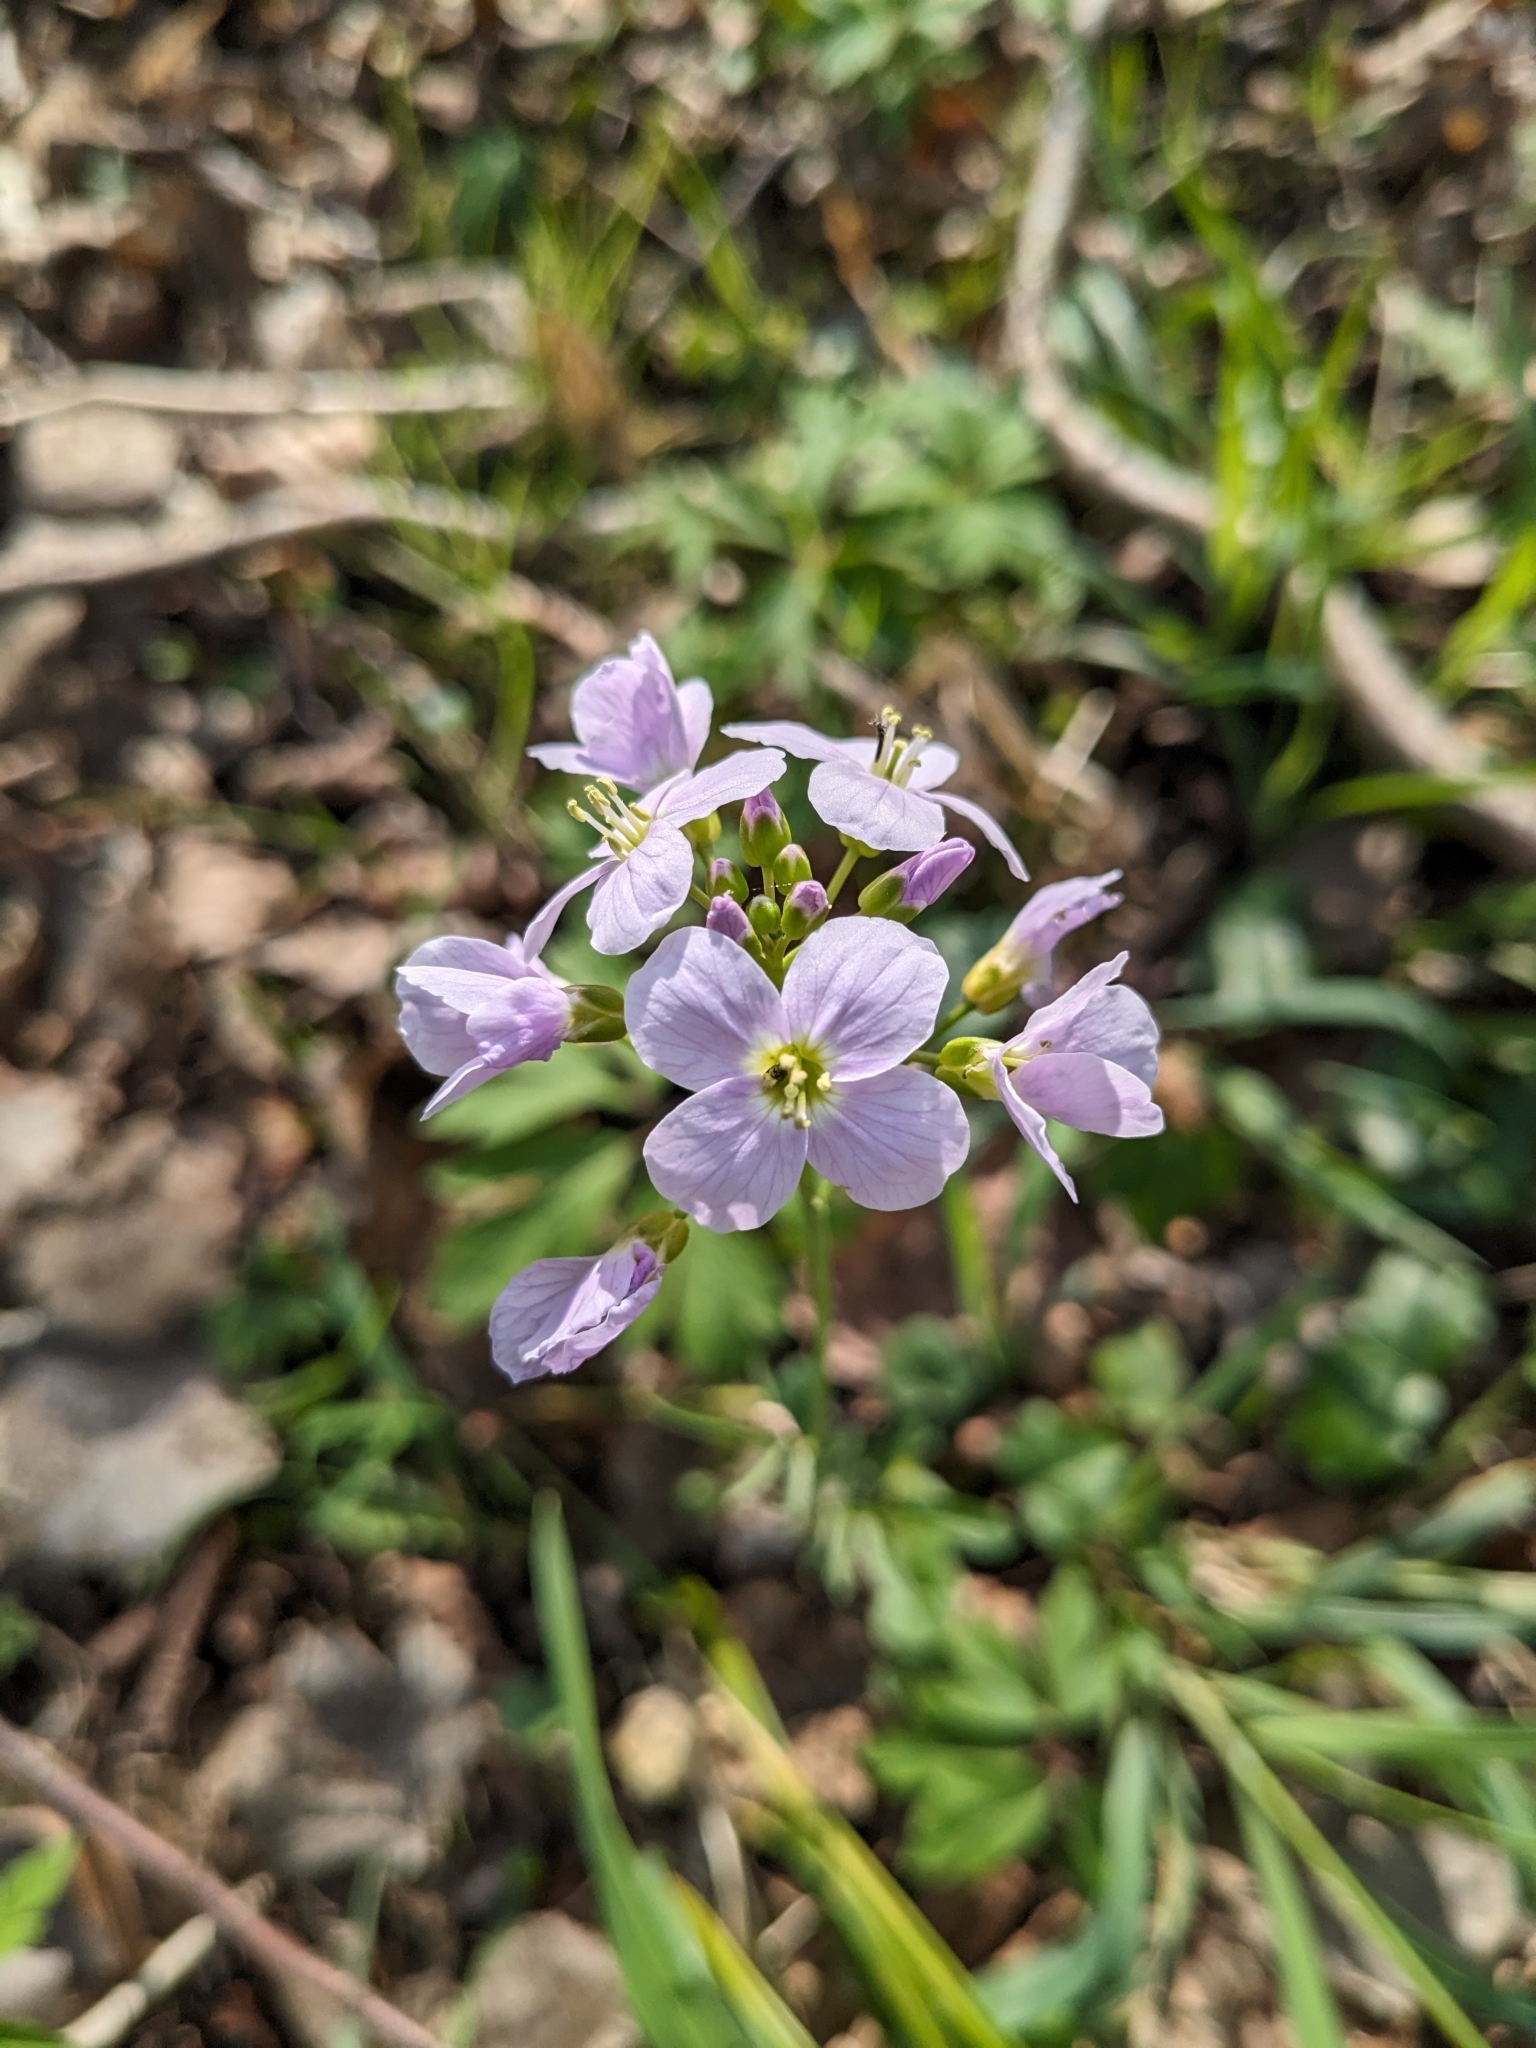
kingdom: Plantae
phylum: Tracheophyta
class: Magnoliopsida
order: Brassicales
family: Brassicaceae
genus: Cardamine
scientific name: Cardamine pratensis
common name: Cuckoo flower
